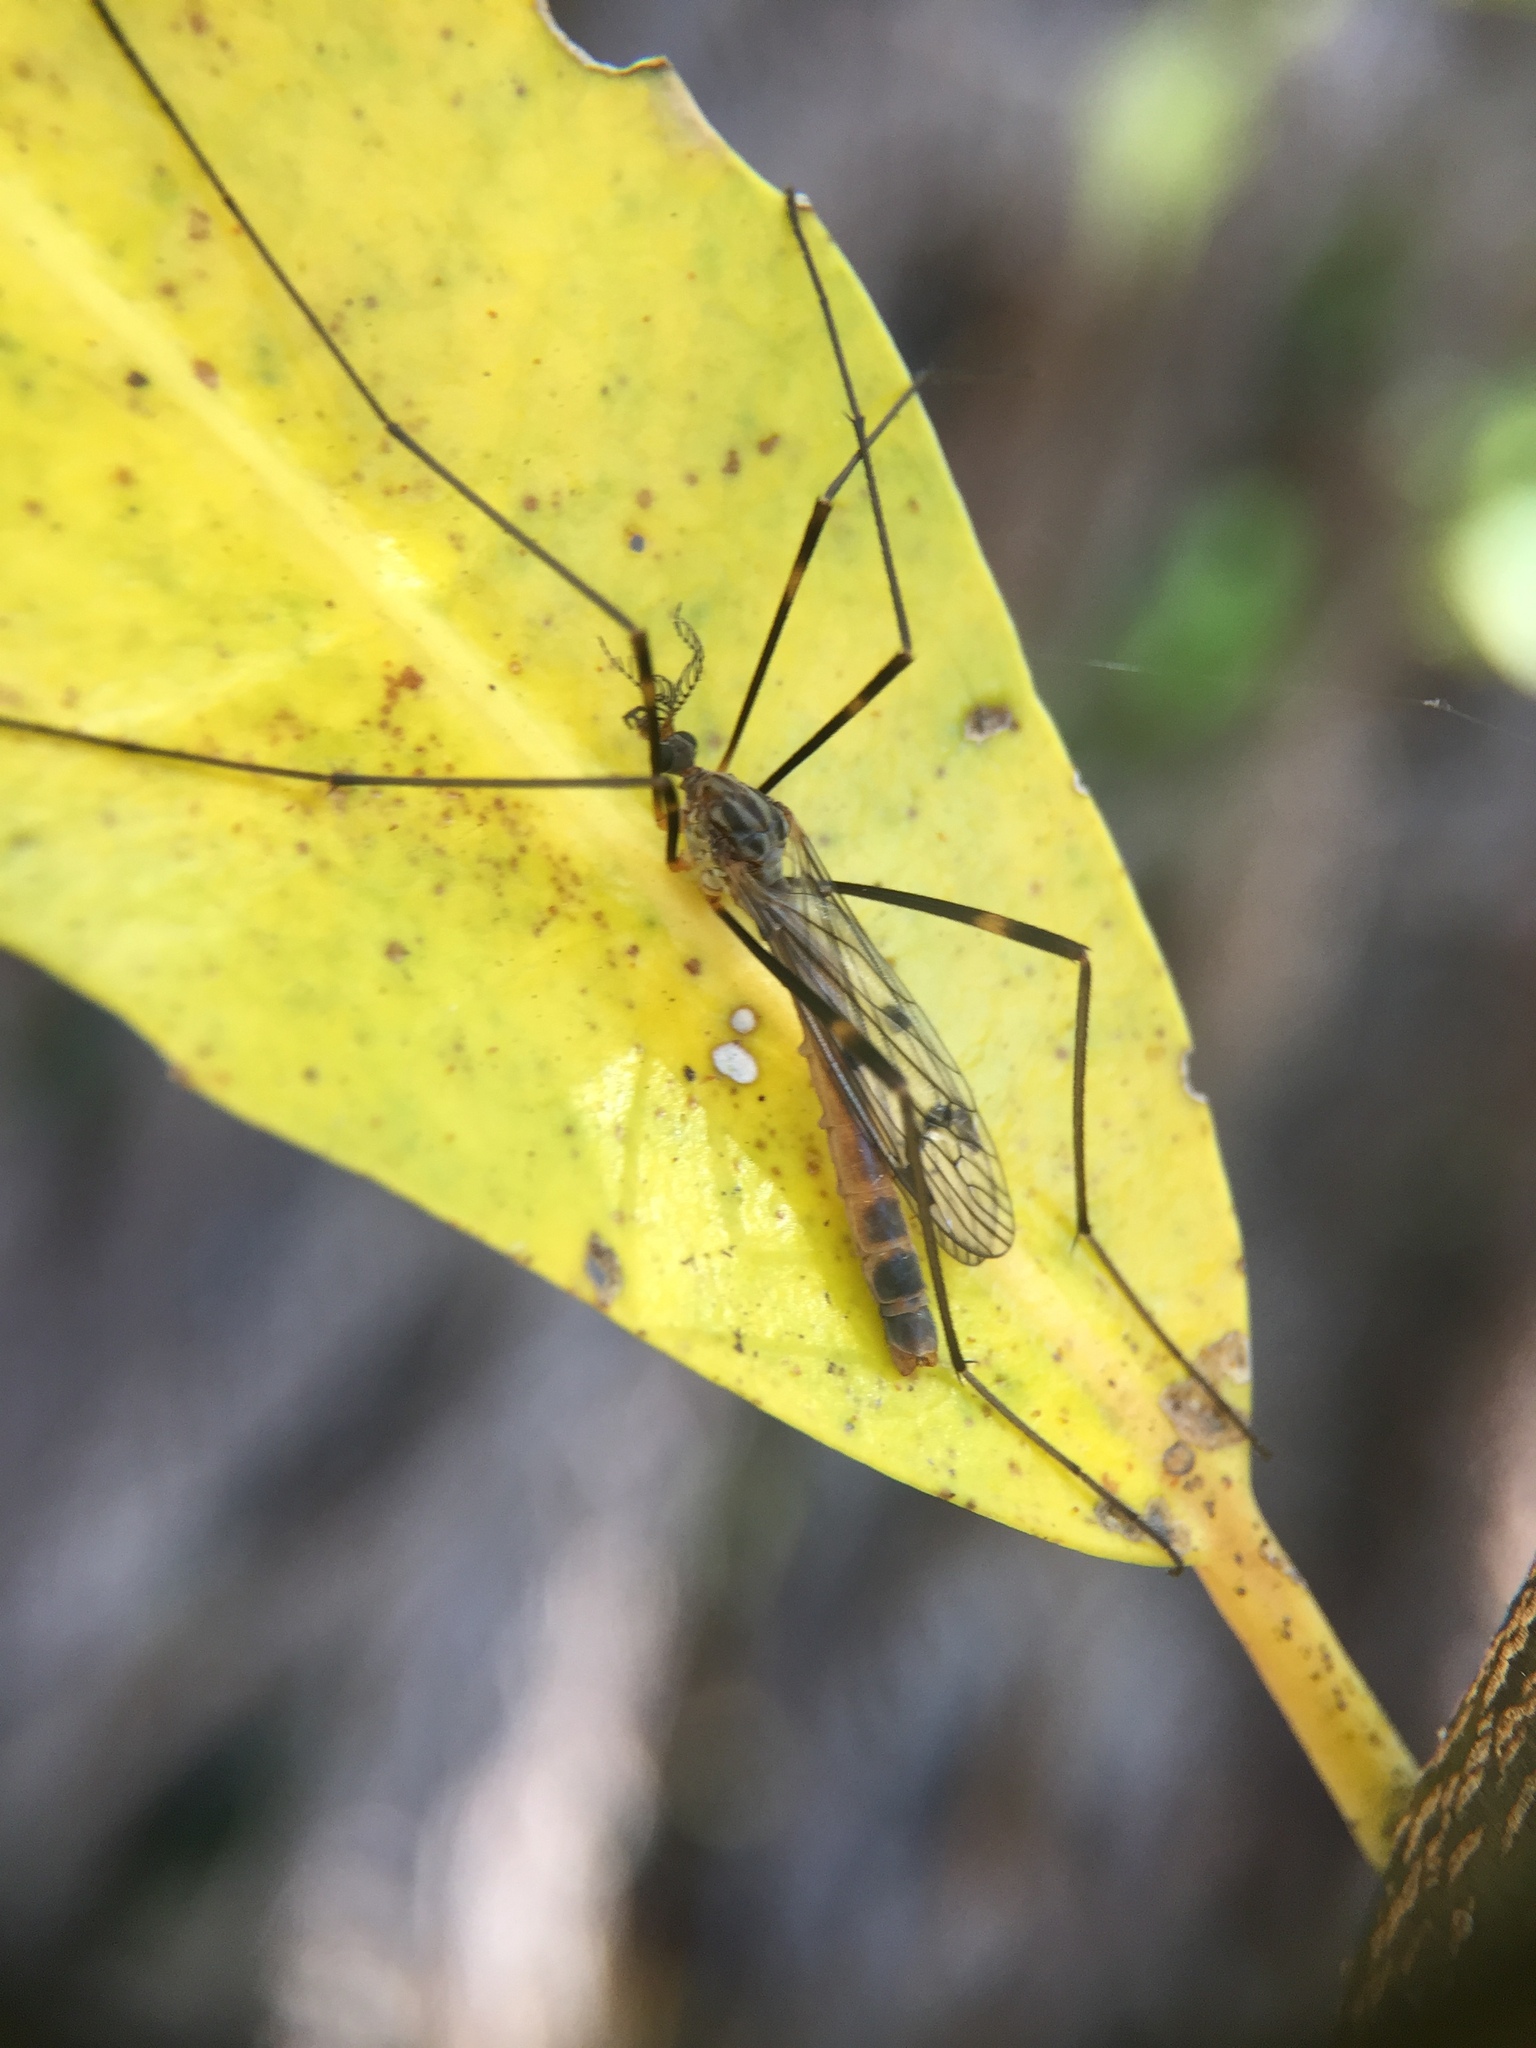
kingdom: Animalia
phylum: Arthropoda
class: Insecta
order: Diptera
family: Limoniidae
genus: Gynoplistia
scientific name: Gynoplistia fimbriata
